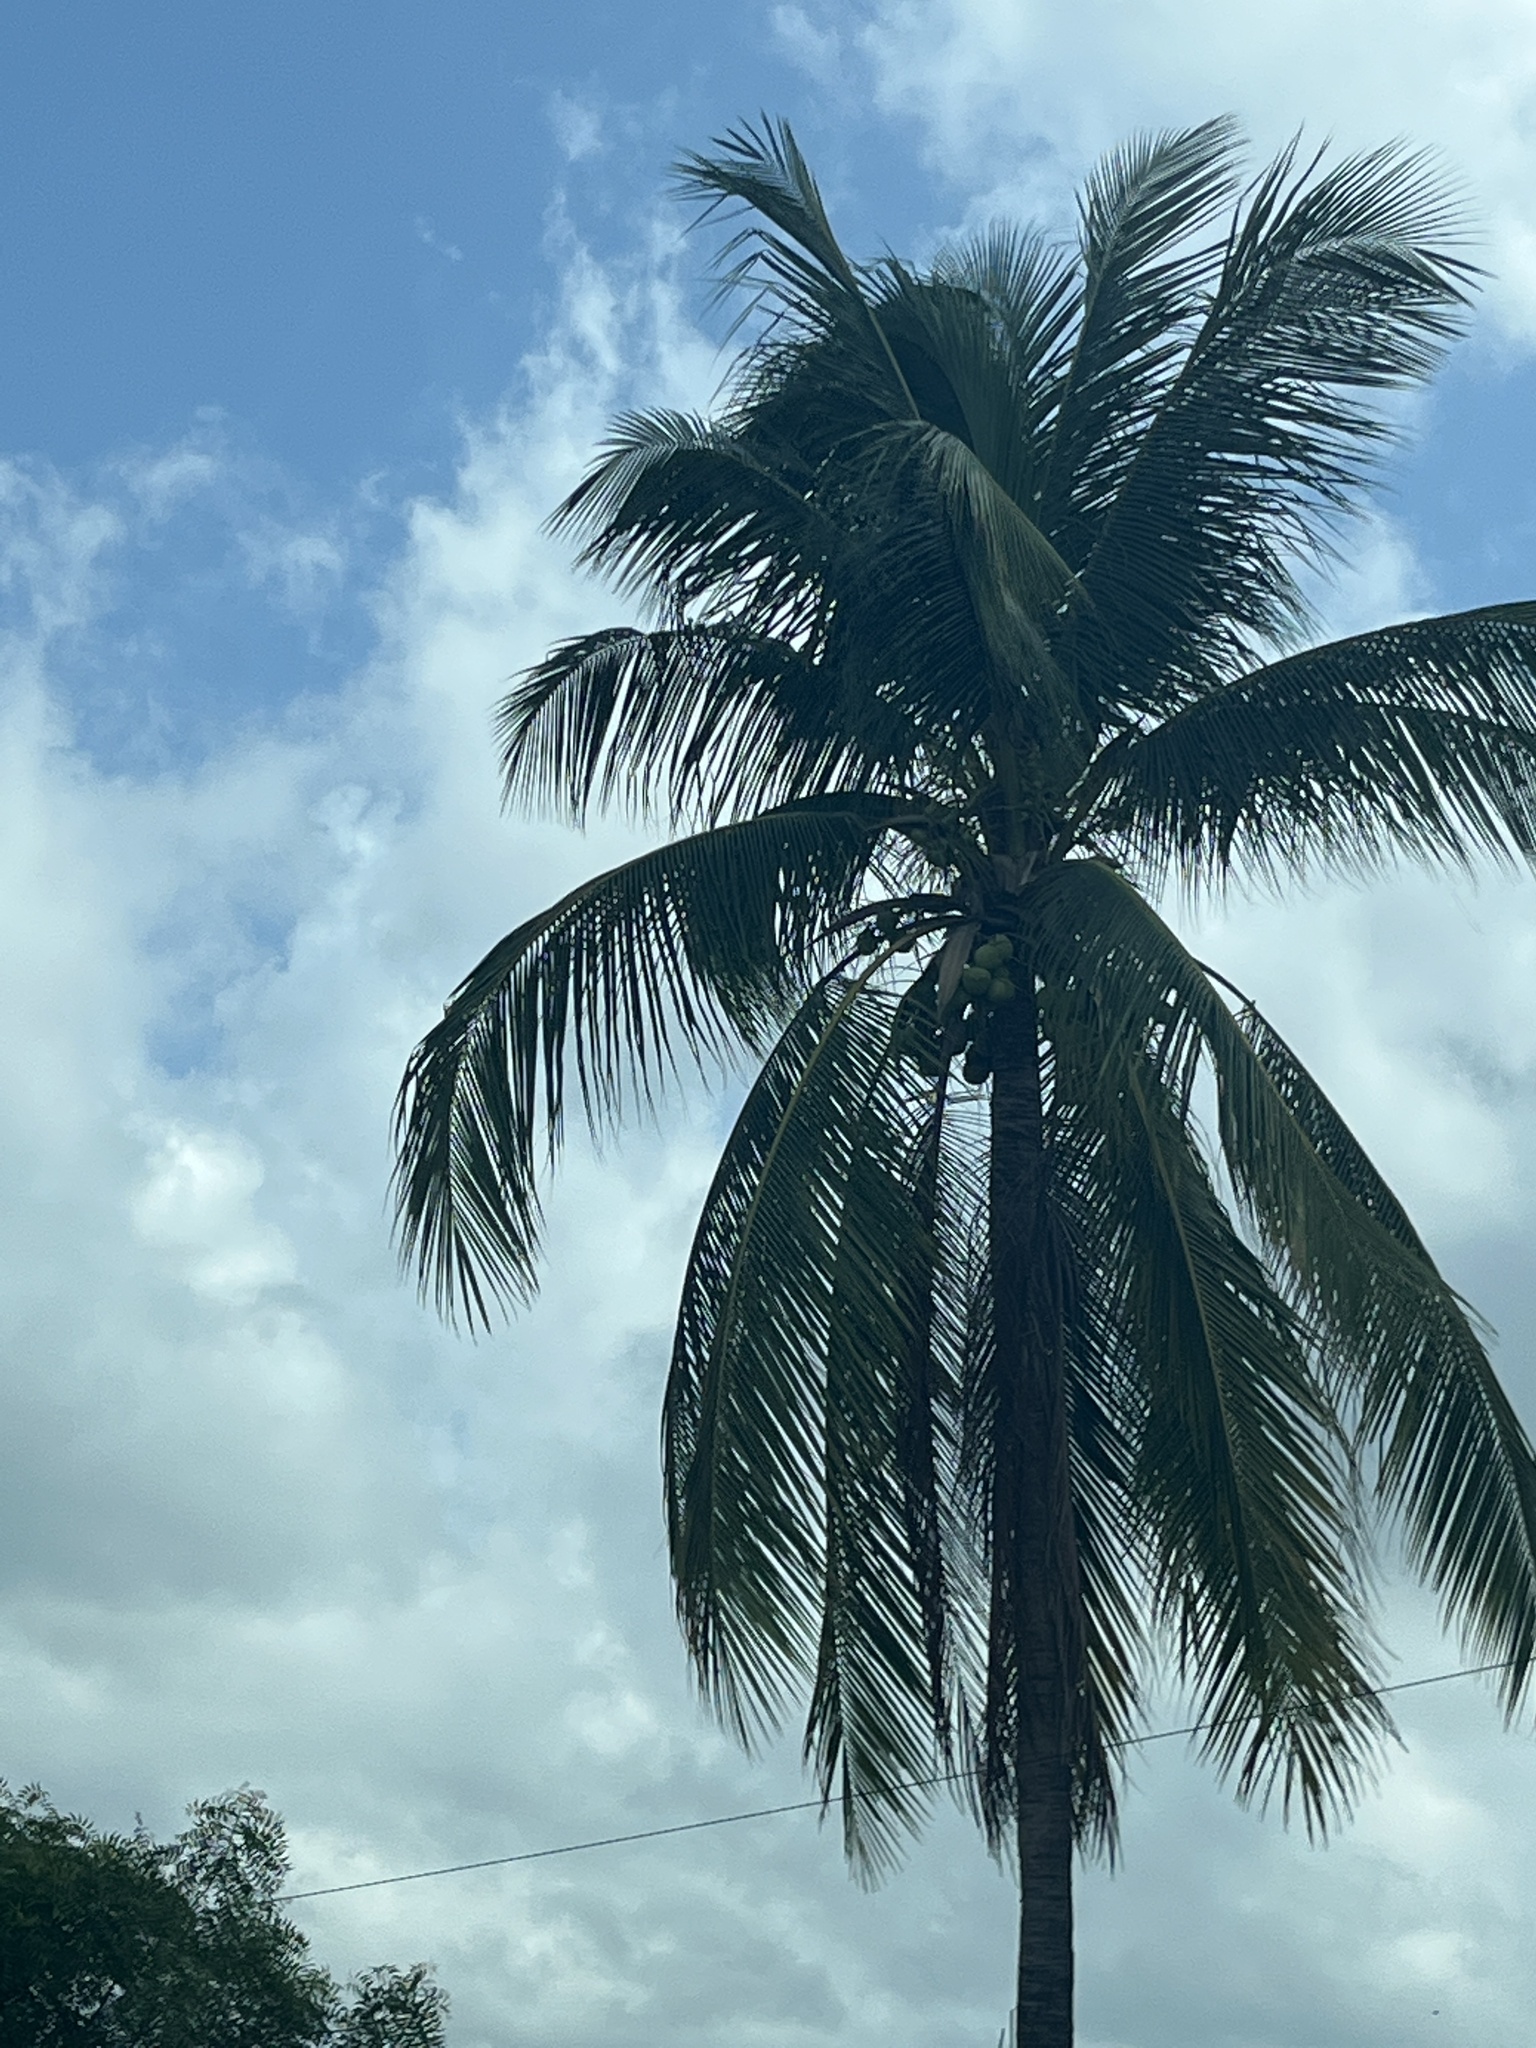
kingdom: Plantae
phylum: Tracheophyta
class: Liliopsida
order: Arecales
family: Arecaceae
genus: Cocos
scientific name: Cocos nucifera
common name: Coconut palm
